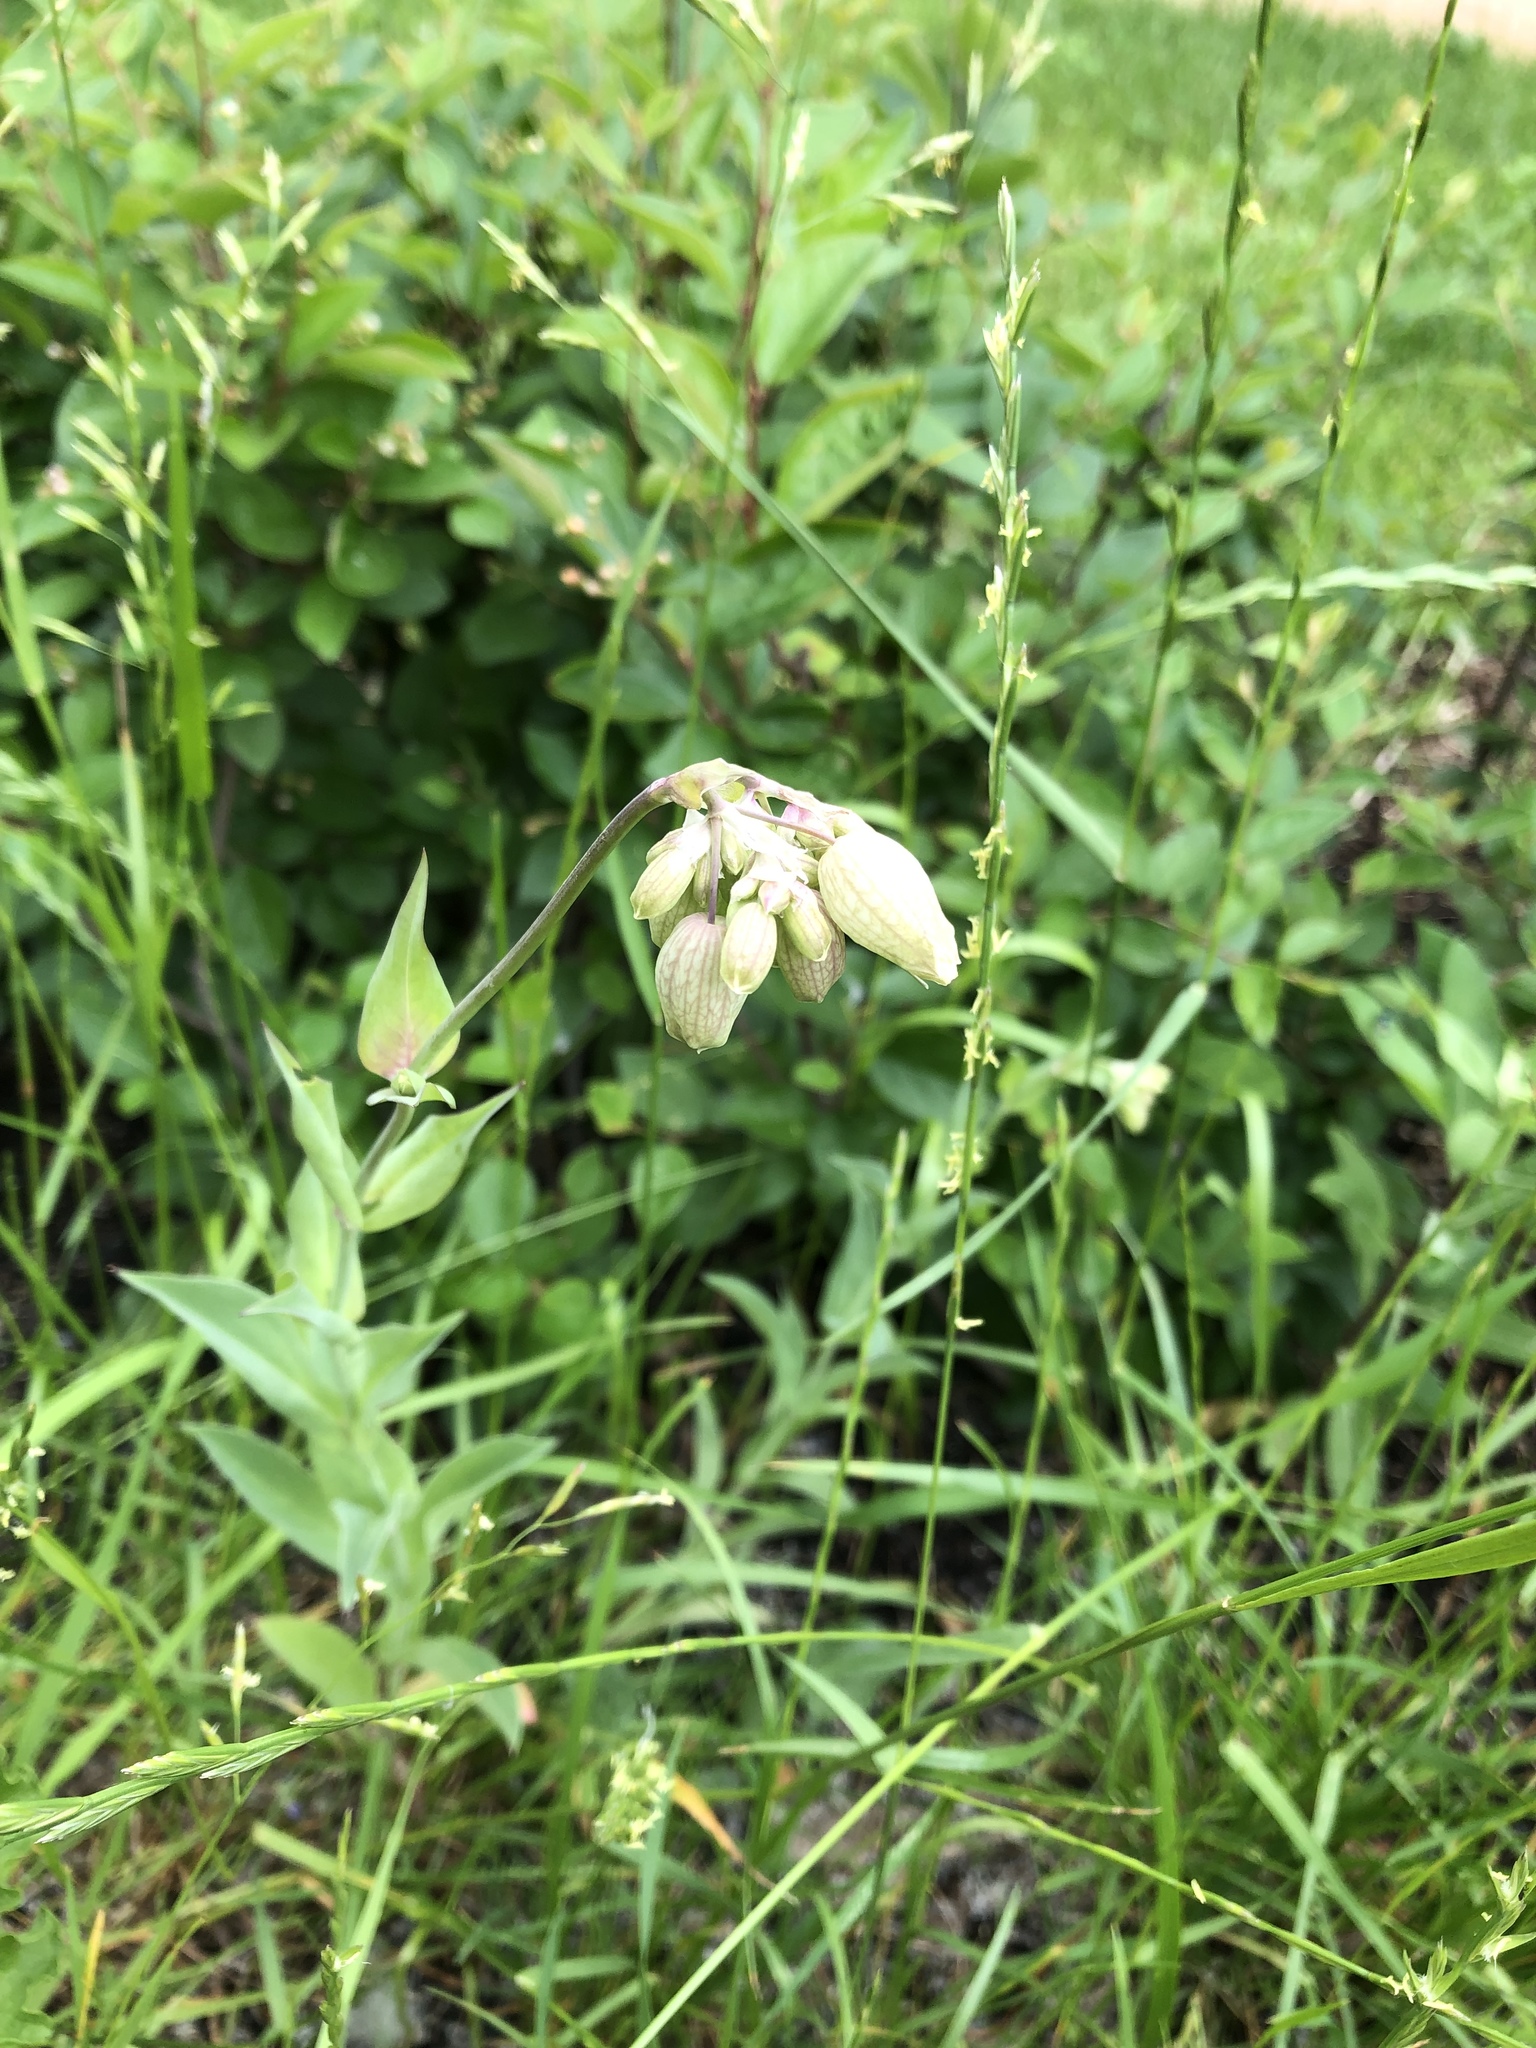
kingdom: Plantae
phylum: Tracheophyta
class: Magnoliopsida
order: Caryophyllales
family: Caryophyllaceae
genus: Silene
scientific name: Silene vulgaris
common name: Bladder campion
